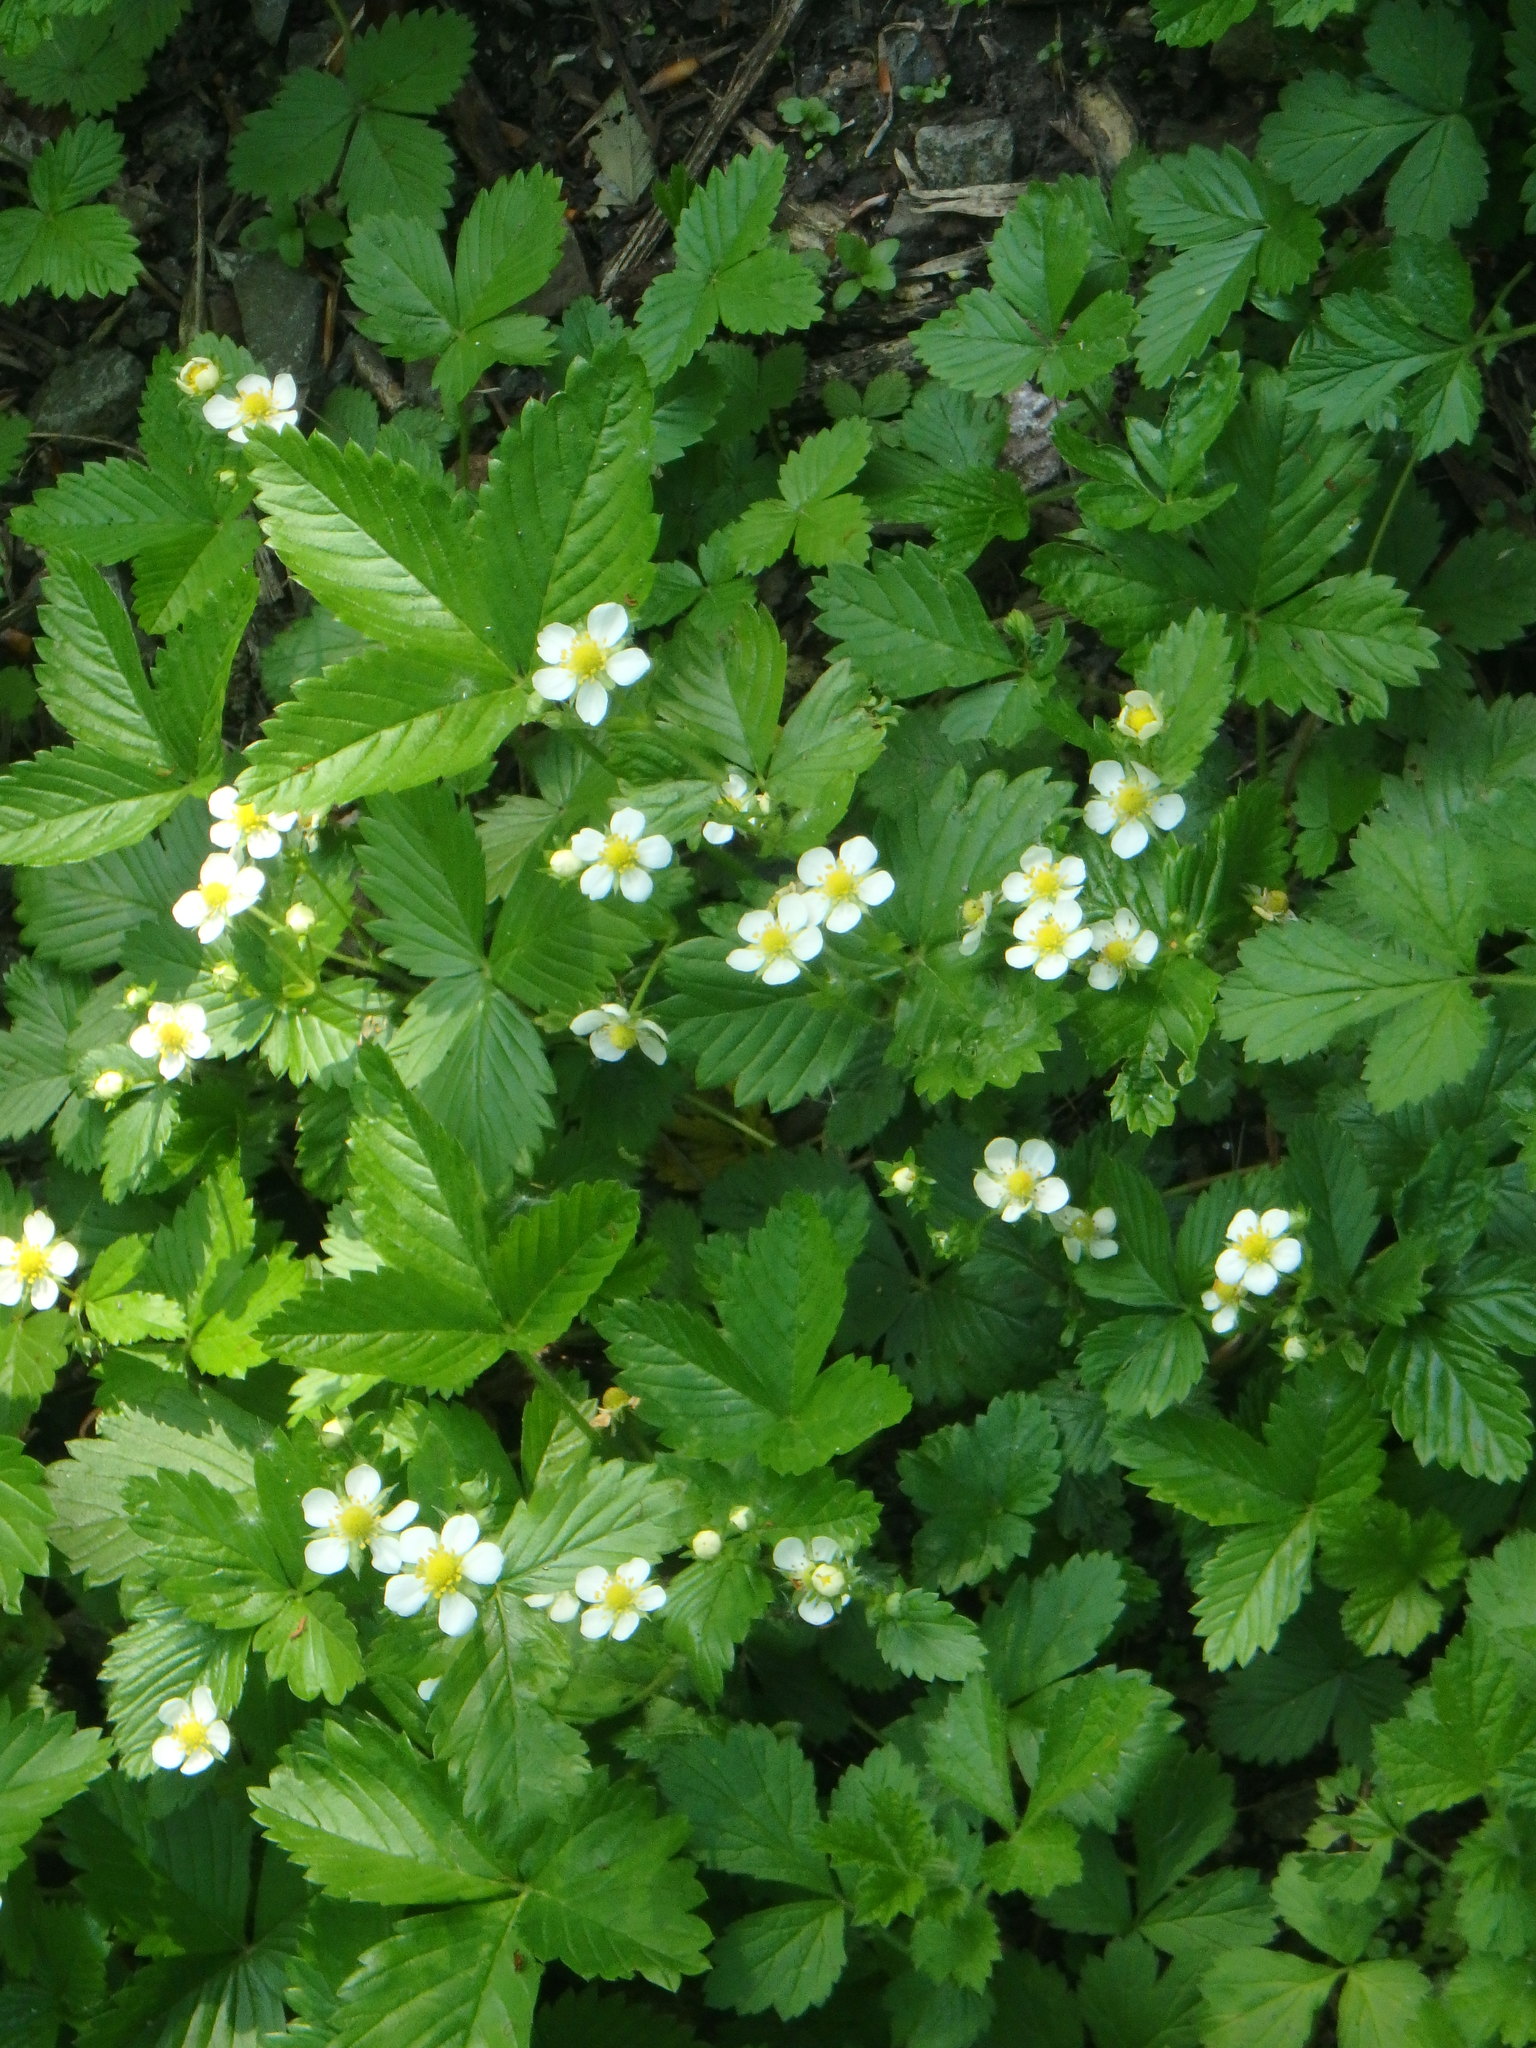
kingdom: Plantae
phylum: Tracheophyta
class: Magnoliopsida
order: Rosales
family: Rosaceae
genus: Fragaria
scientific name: Fragaria vesca
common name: Wild strawberry
